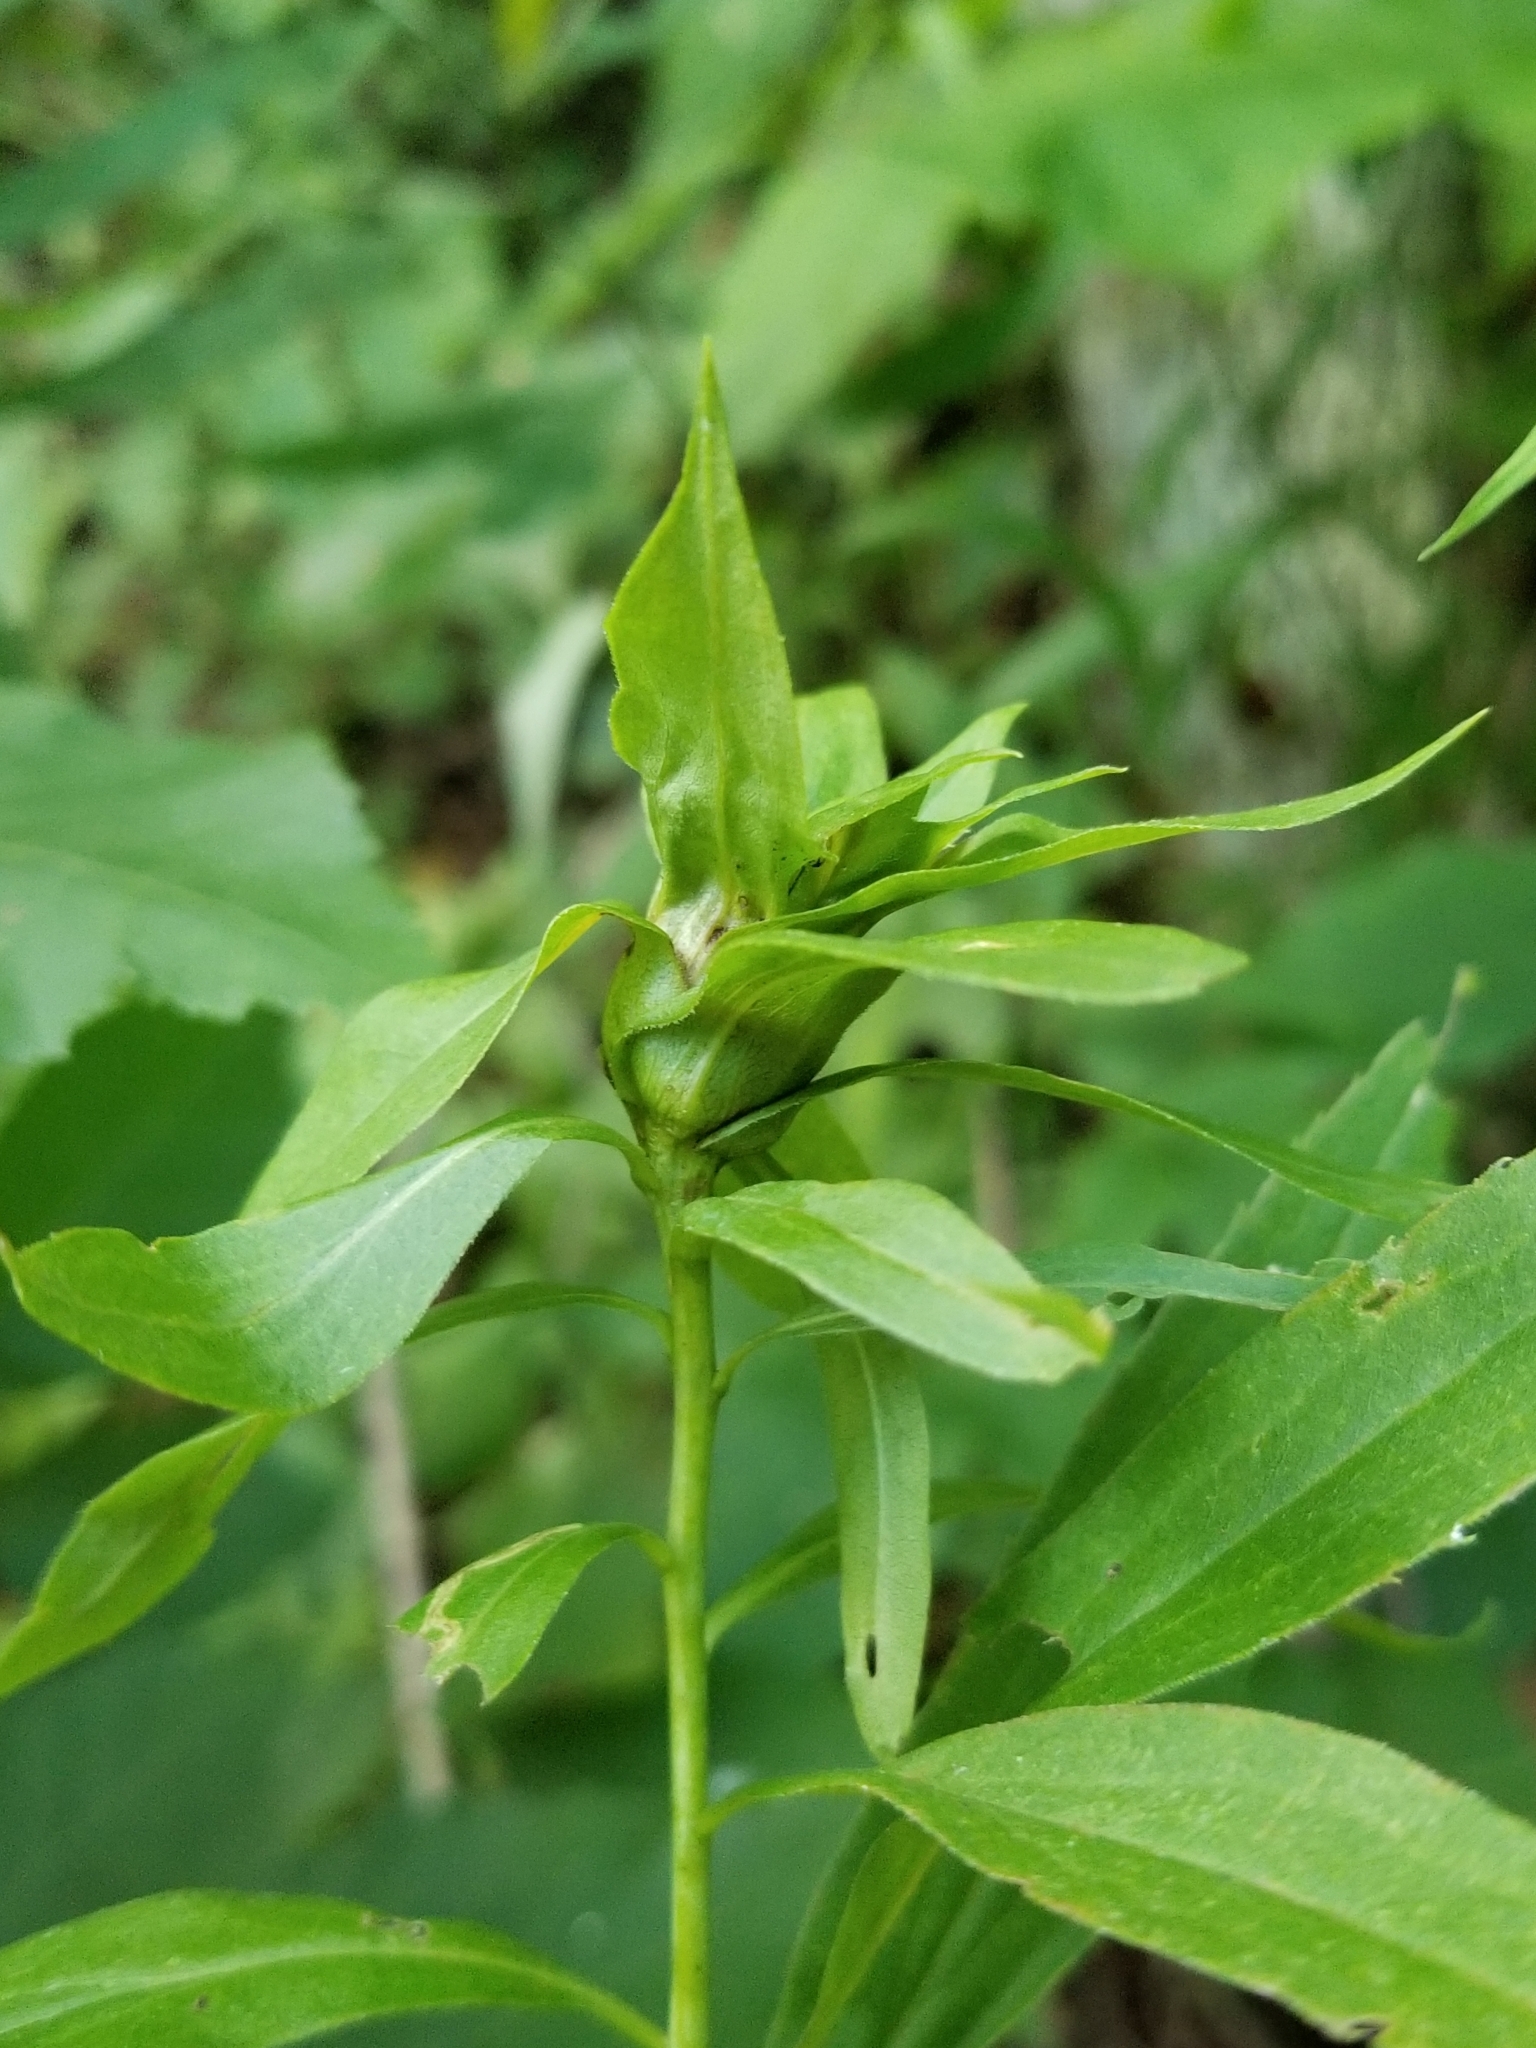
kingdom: Animalia
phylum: Arthropoda
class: Insecta
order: Diptera
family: Cecidomyiidae
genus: Dasineura
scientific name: Dasineura folliculi
